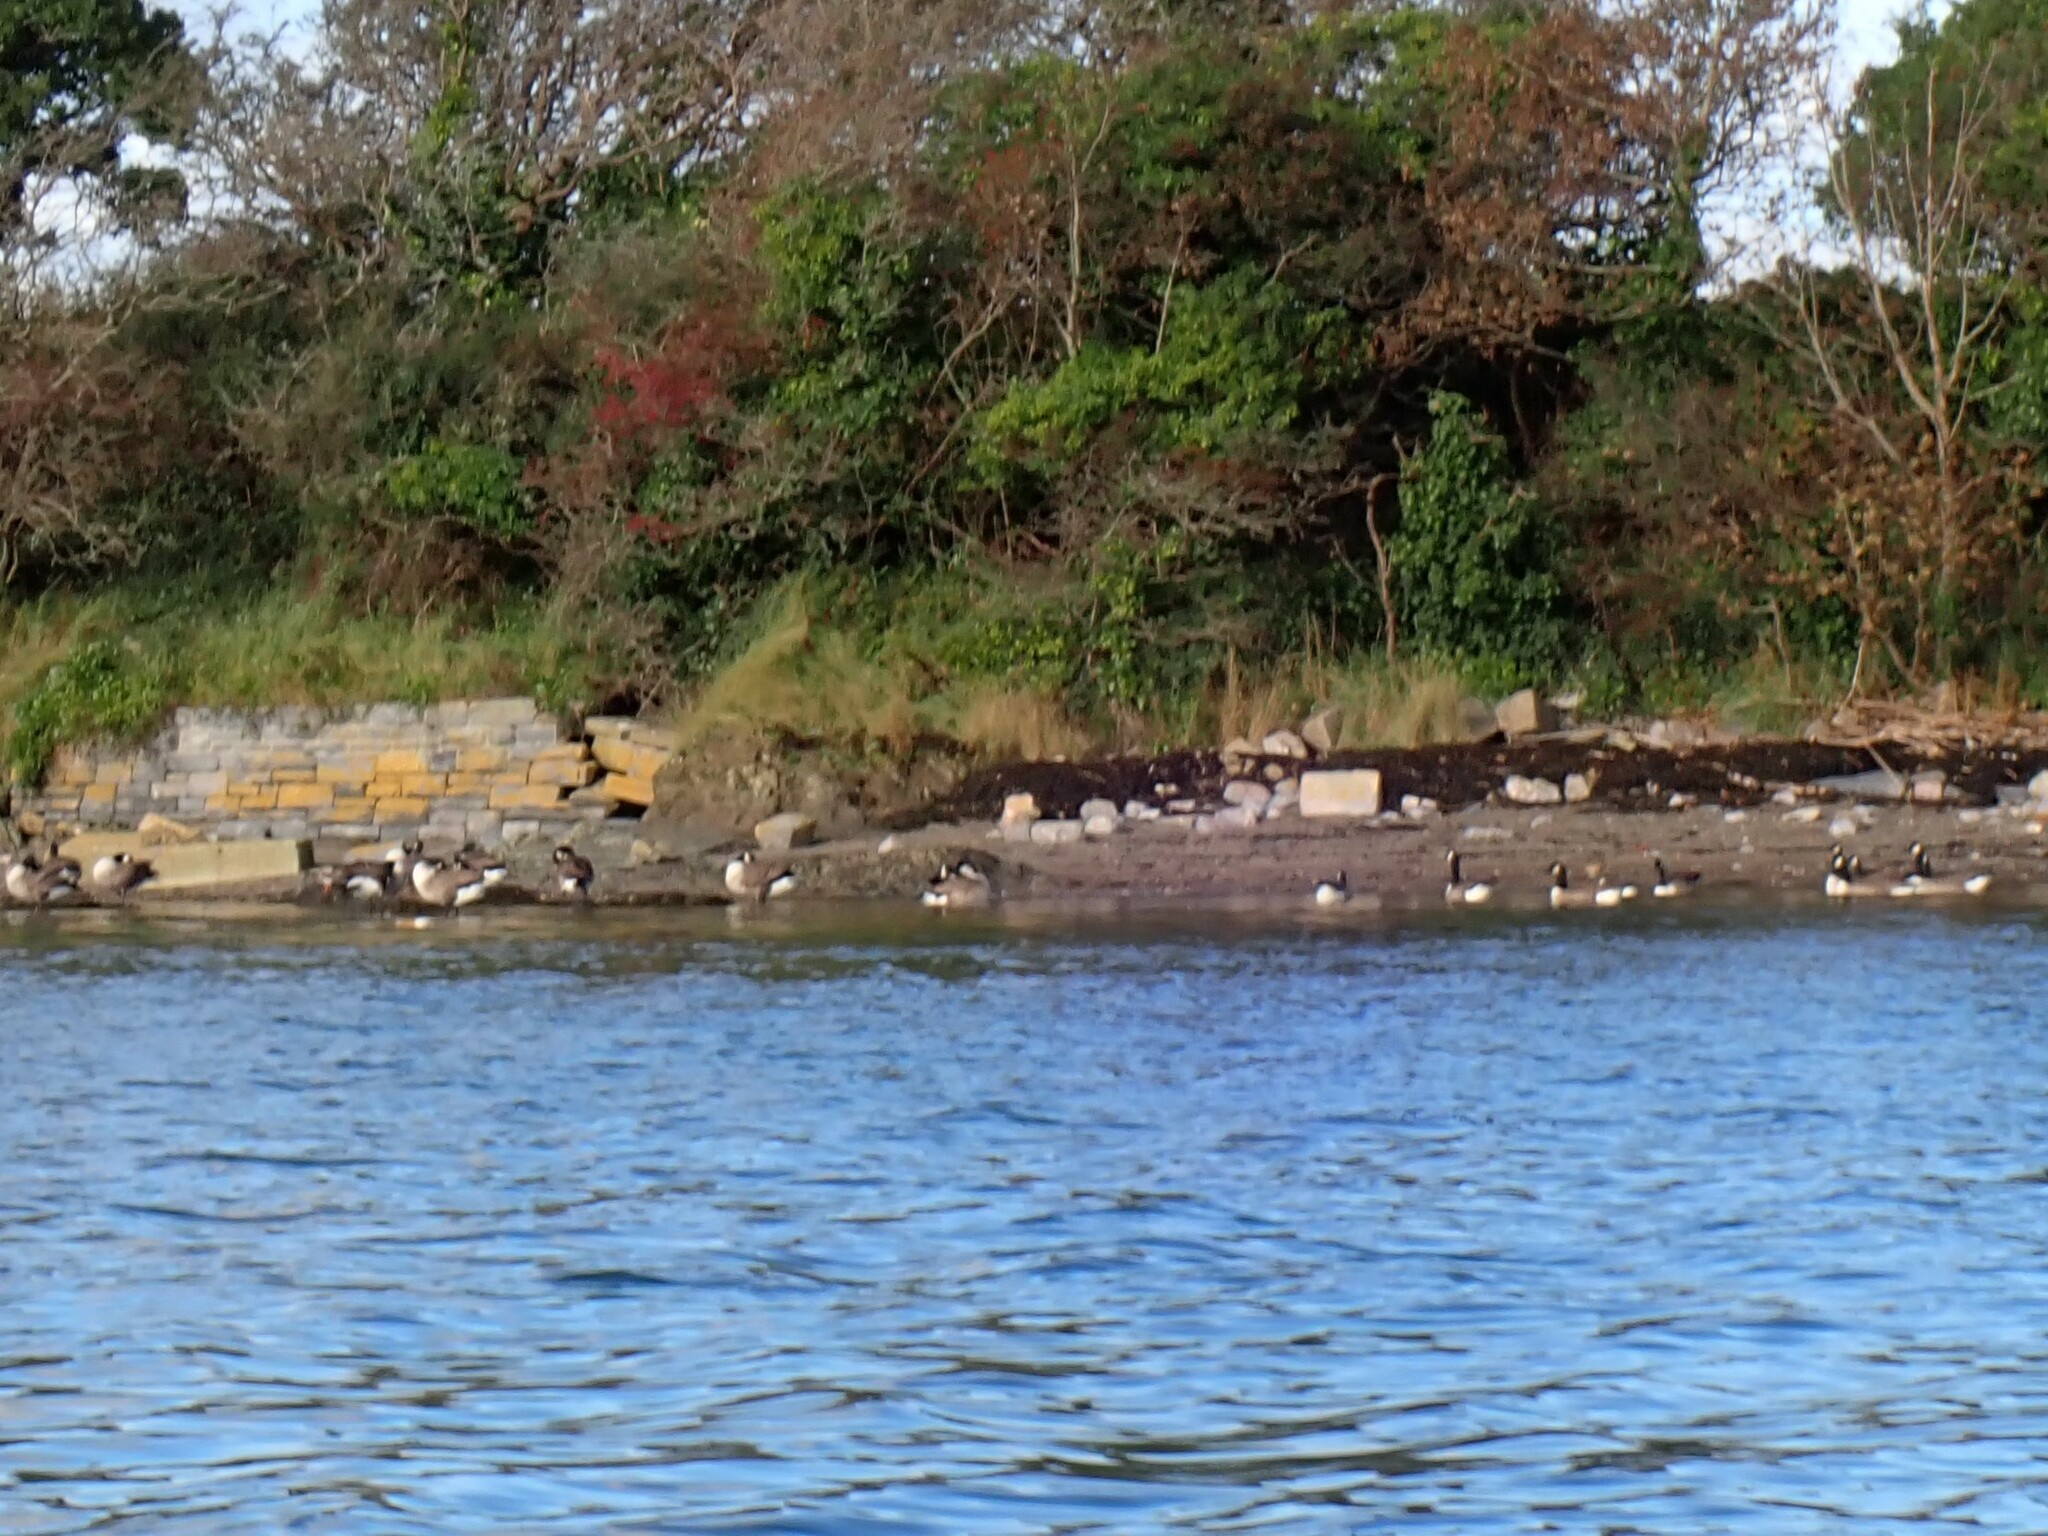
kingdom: Animalia
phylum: Chordata
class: Aves
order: Anseriformes
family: Anatidae
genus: Branta
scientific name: Branta canadensis
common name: Canada goose
